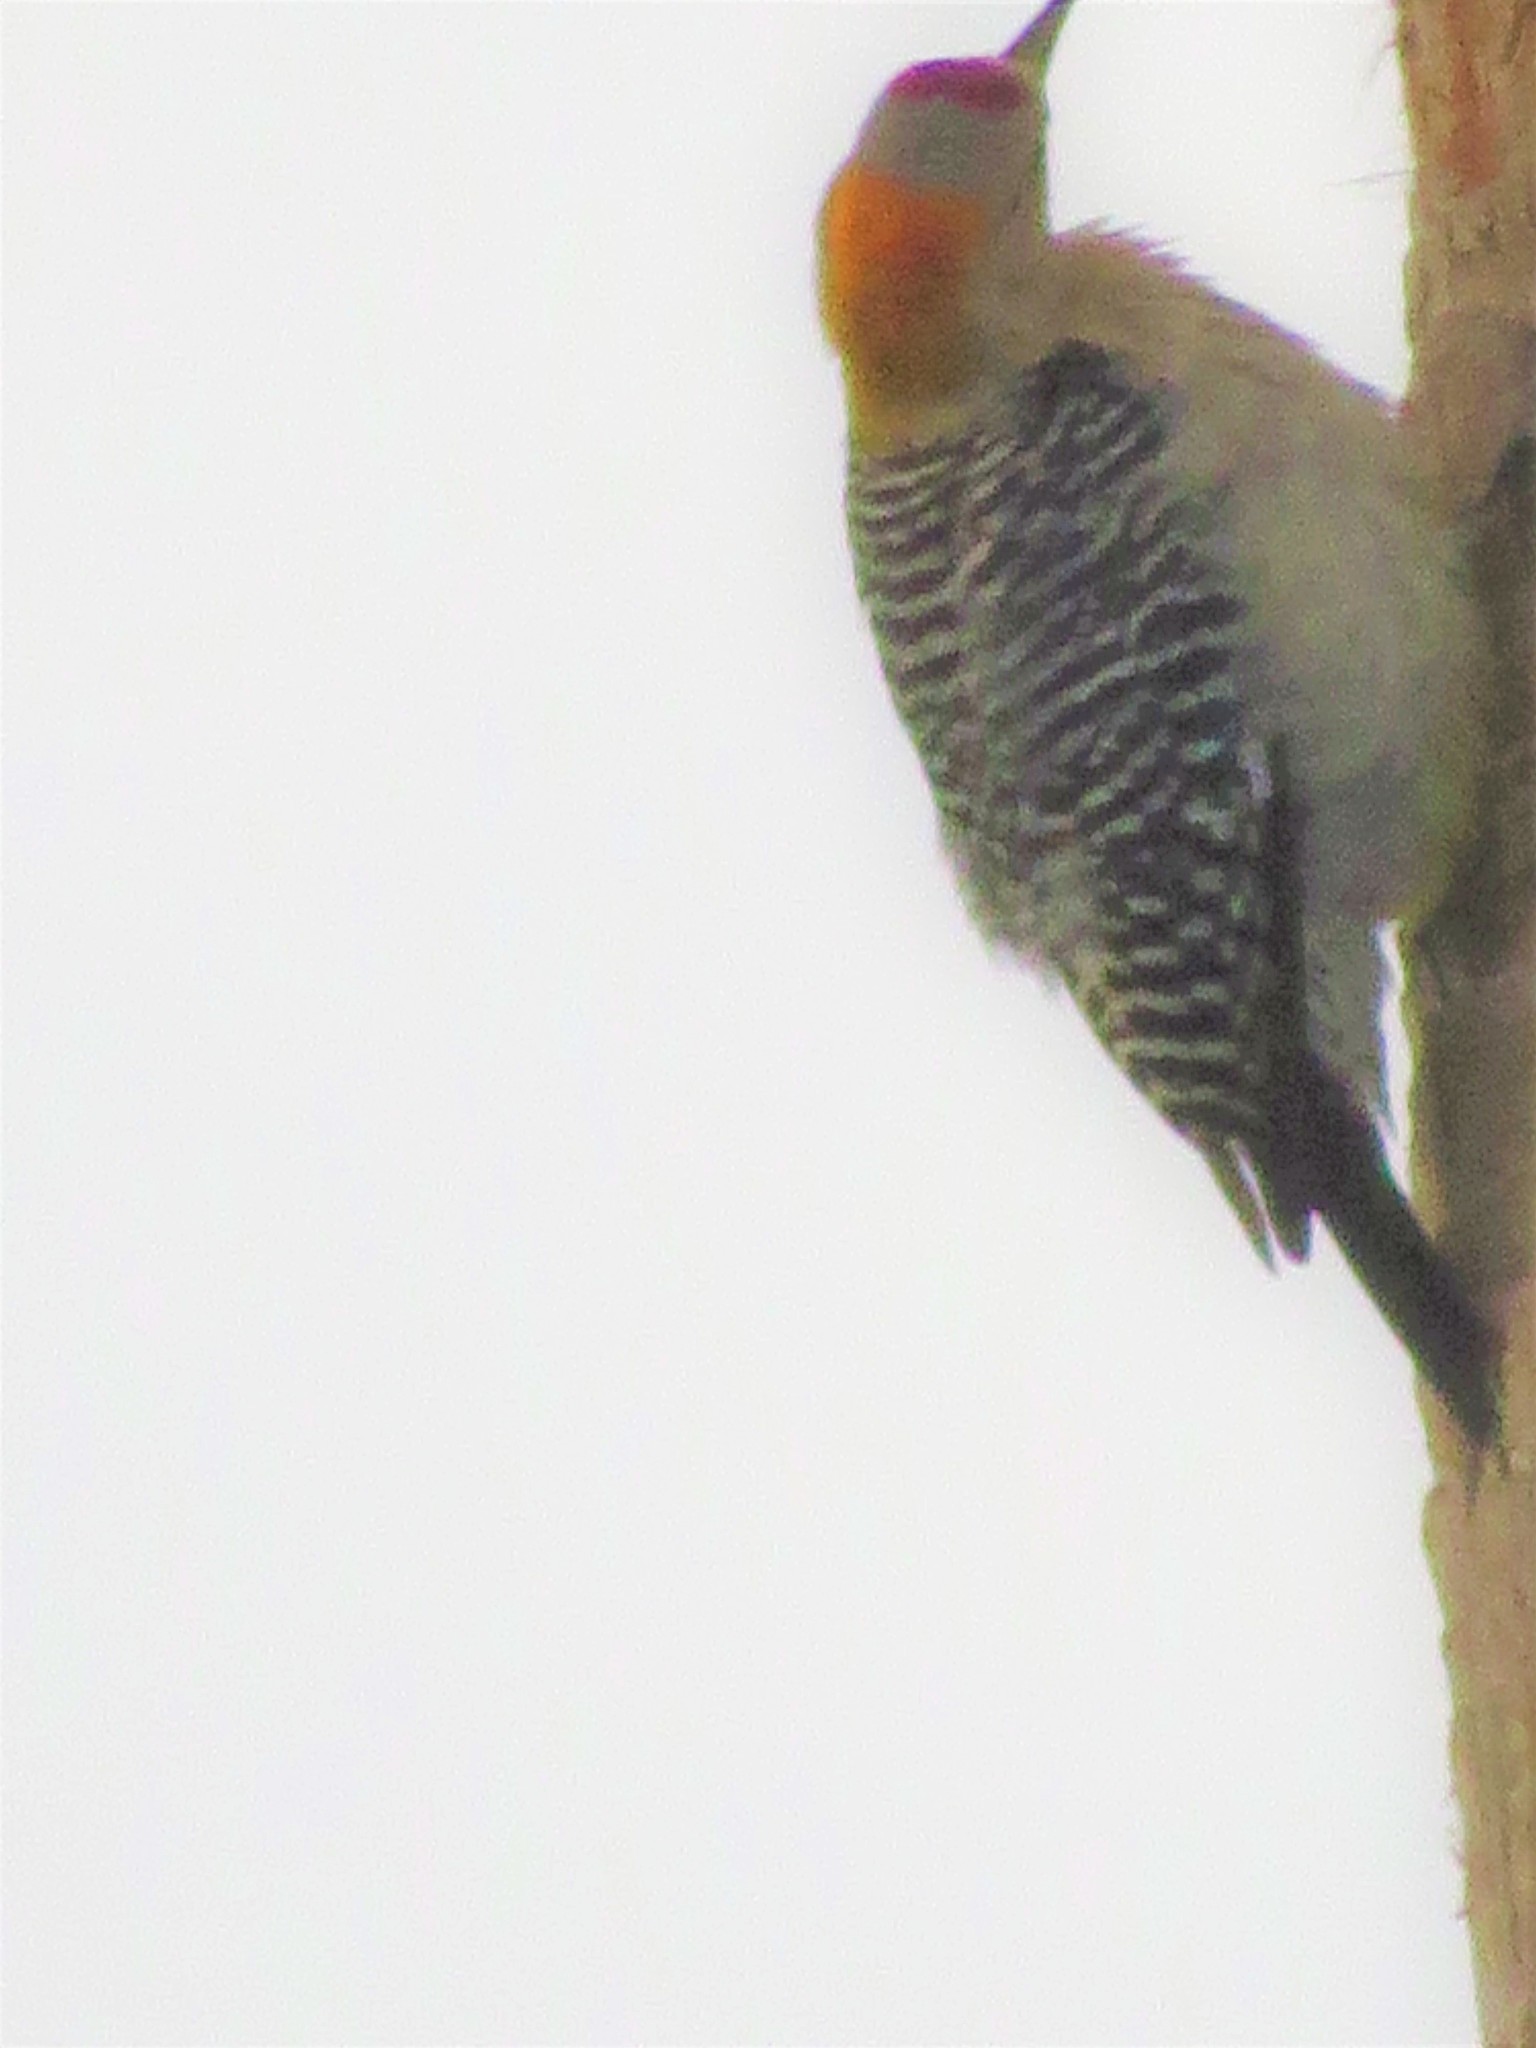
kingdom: Animalia
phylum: Chordata
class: Aves
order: Piciformes
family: Picidae
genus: Melanerpes
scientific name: Melanerpes aurifrons
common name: Golden-fronted woodpecker
